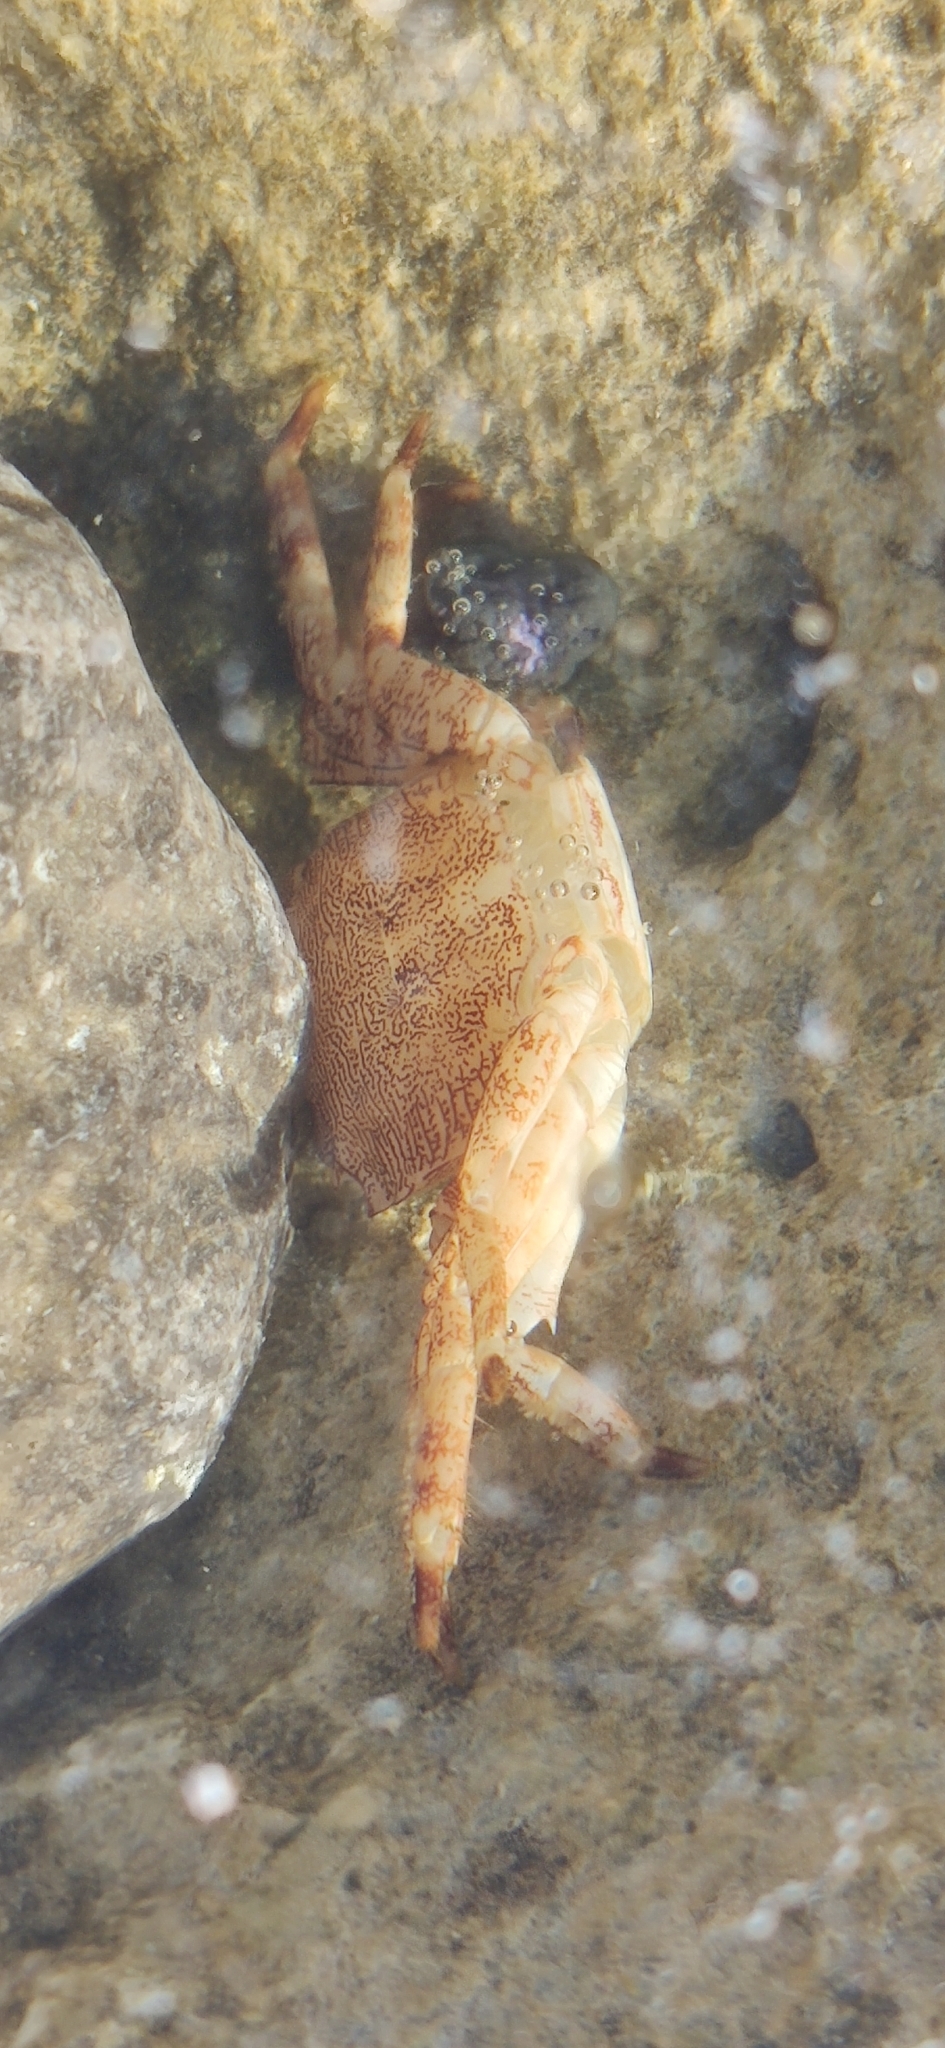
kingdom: Animalia
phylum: Arthropoda
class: Malacostraca
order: Decapoda
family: Grapsidae
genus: Pachygrapsus
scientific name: Pachygrapsus marmoratus
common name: Marbled rock crab
